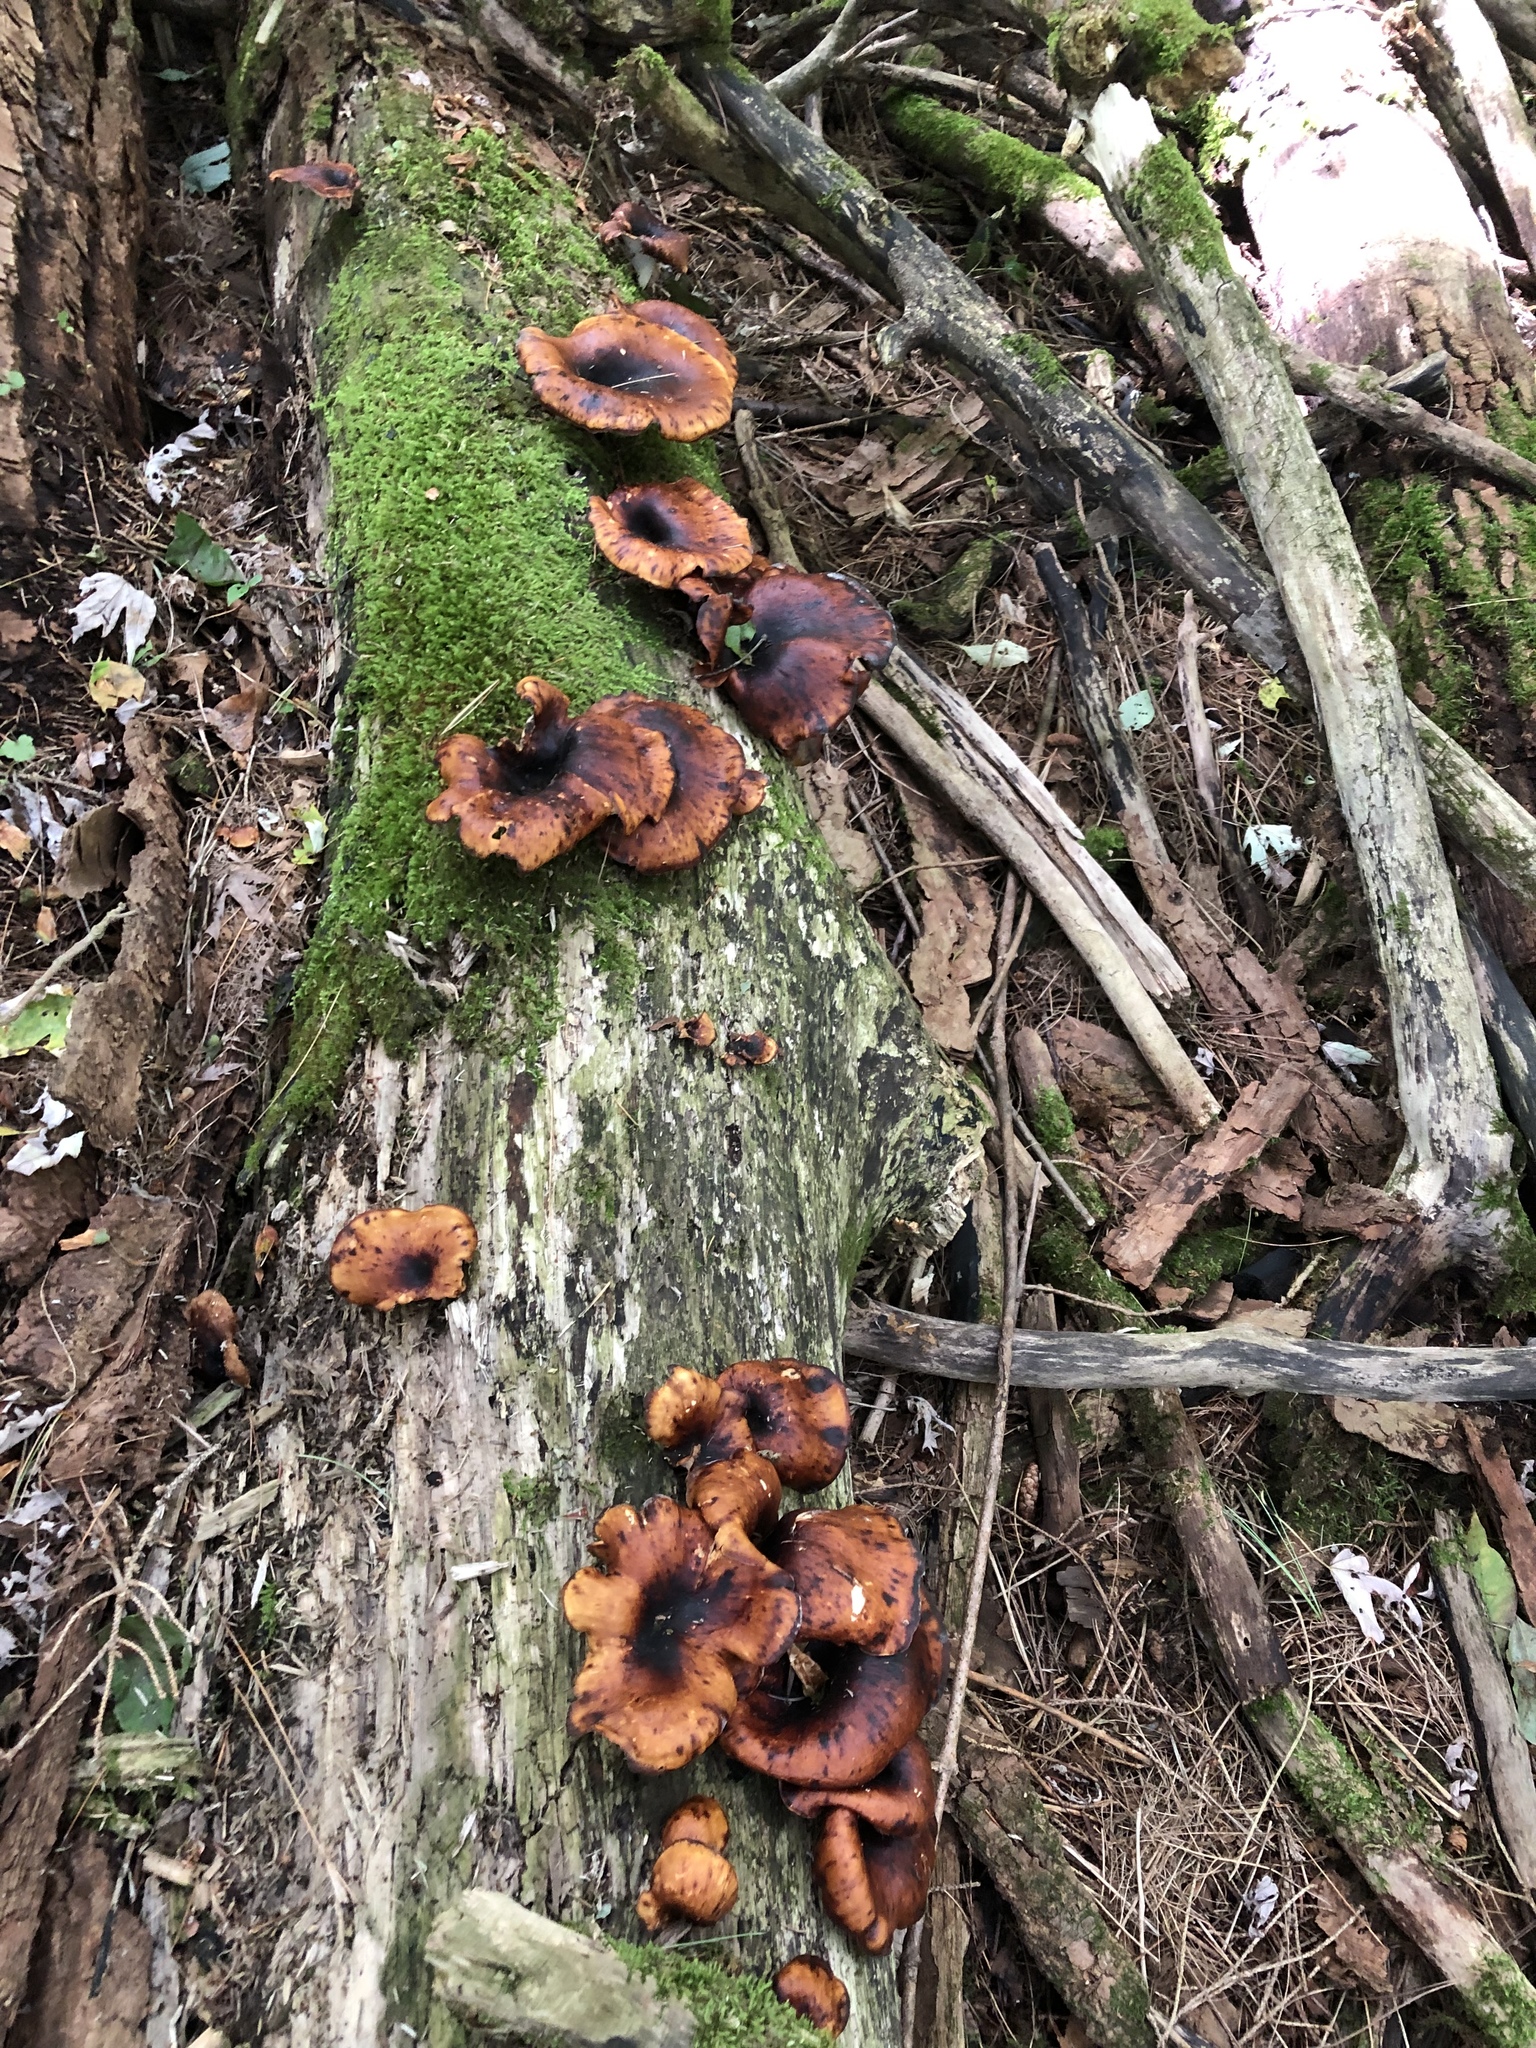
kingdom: Fungi
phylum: Basidiomycota
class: Agaricomycetes
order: Polyporales
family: Polyporaceae
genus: Picipes
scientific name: Picipes badius
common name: Bay polypore
